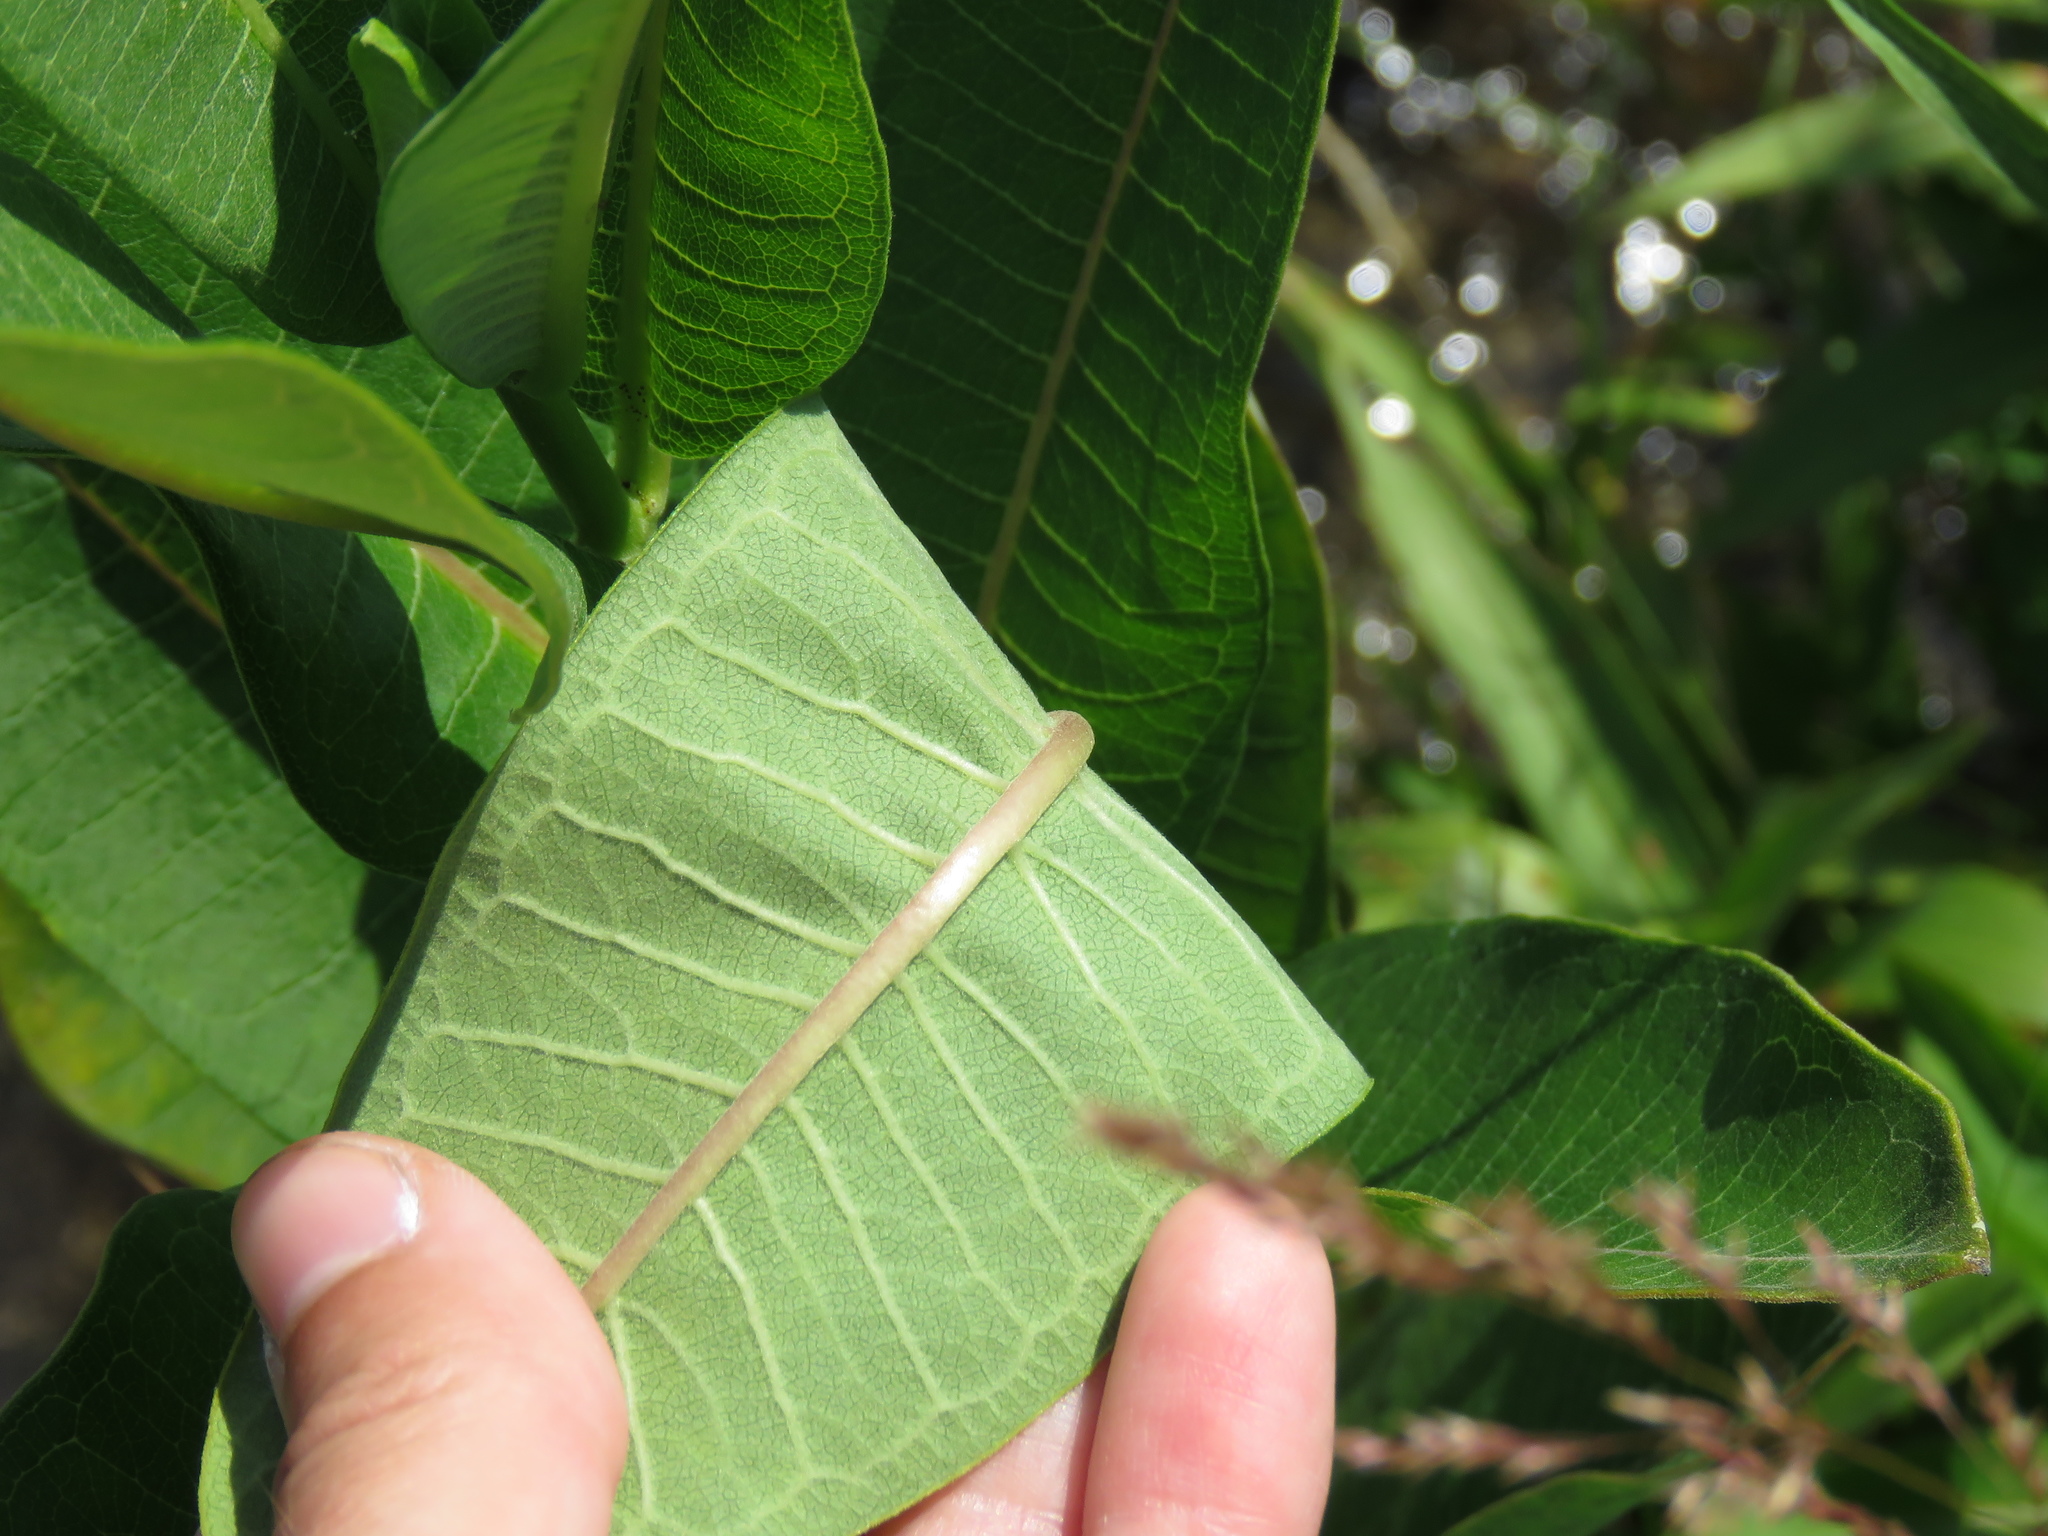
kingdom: Plantae
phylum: Tracheophyta
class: Magnoliopsida
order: Gentianales
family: Apocynaceae
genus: Asclepias
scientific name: Asclepias syriaca
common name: Common milkweed
